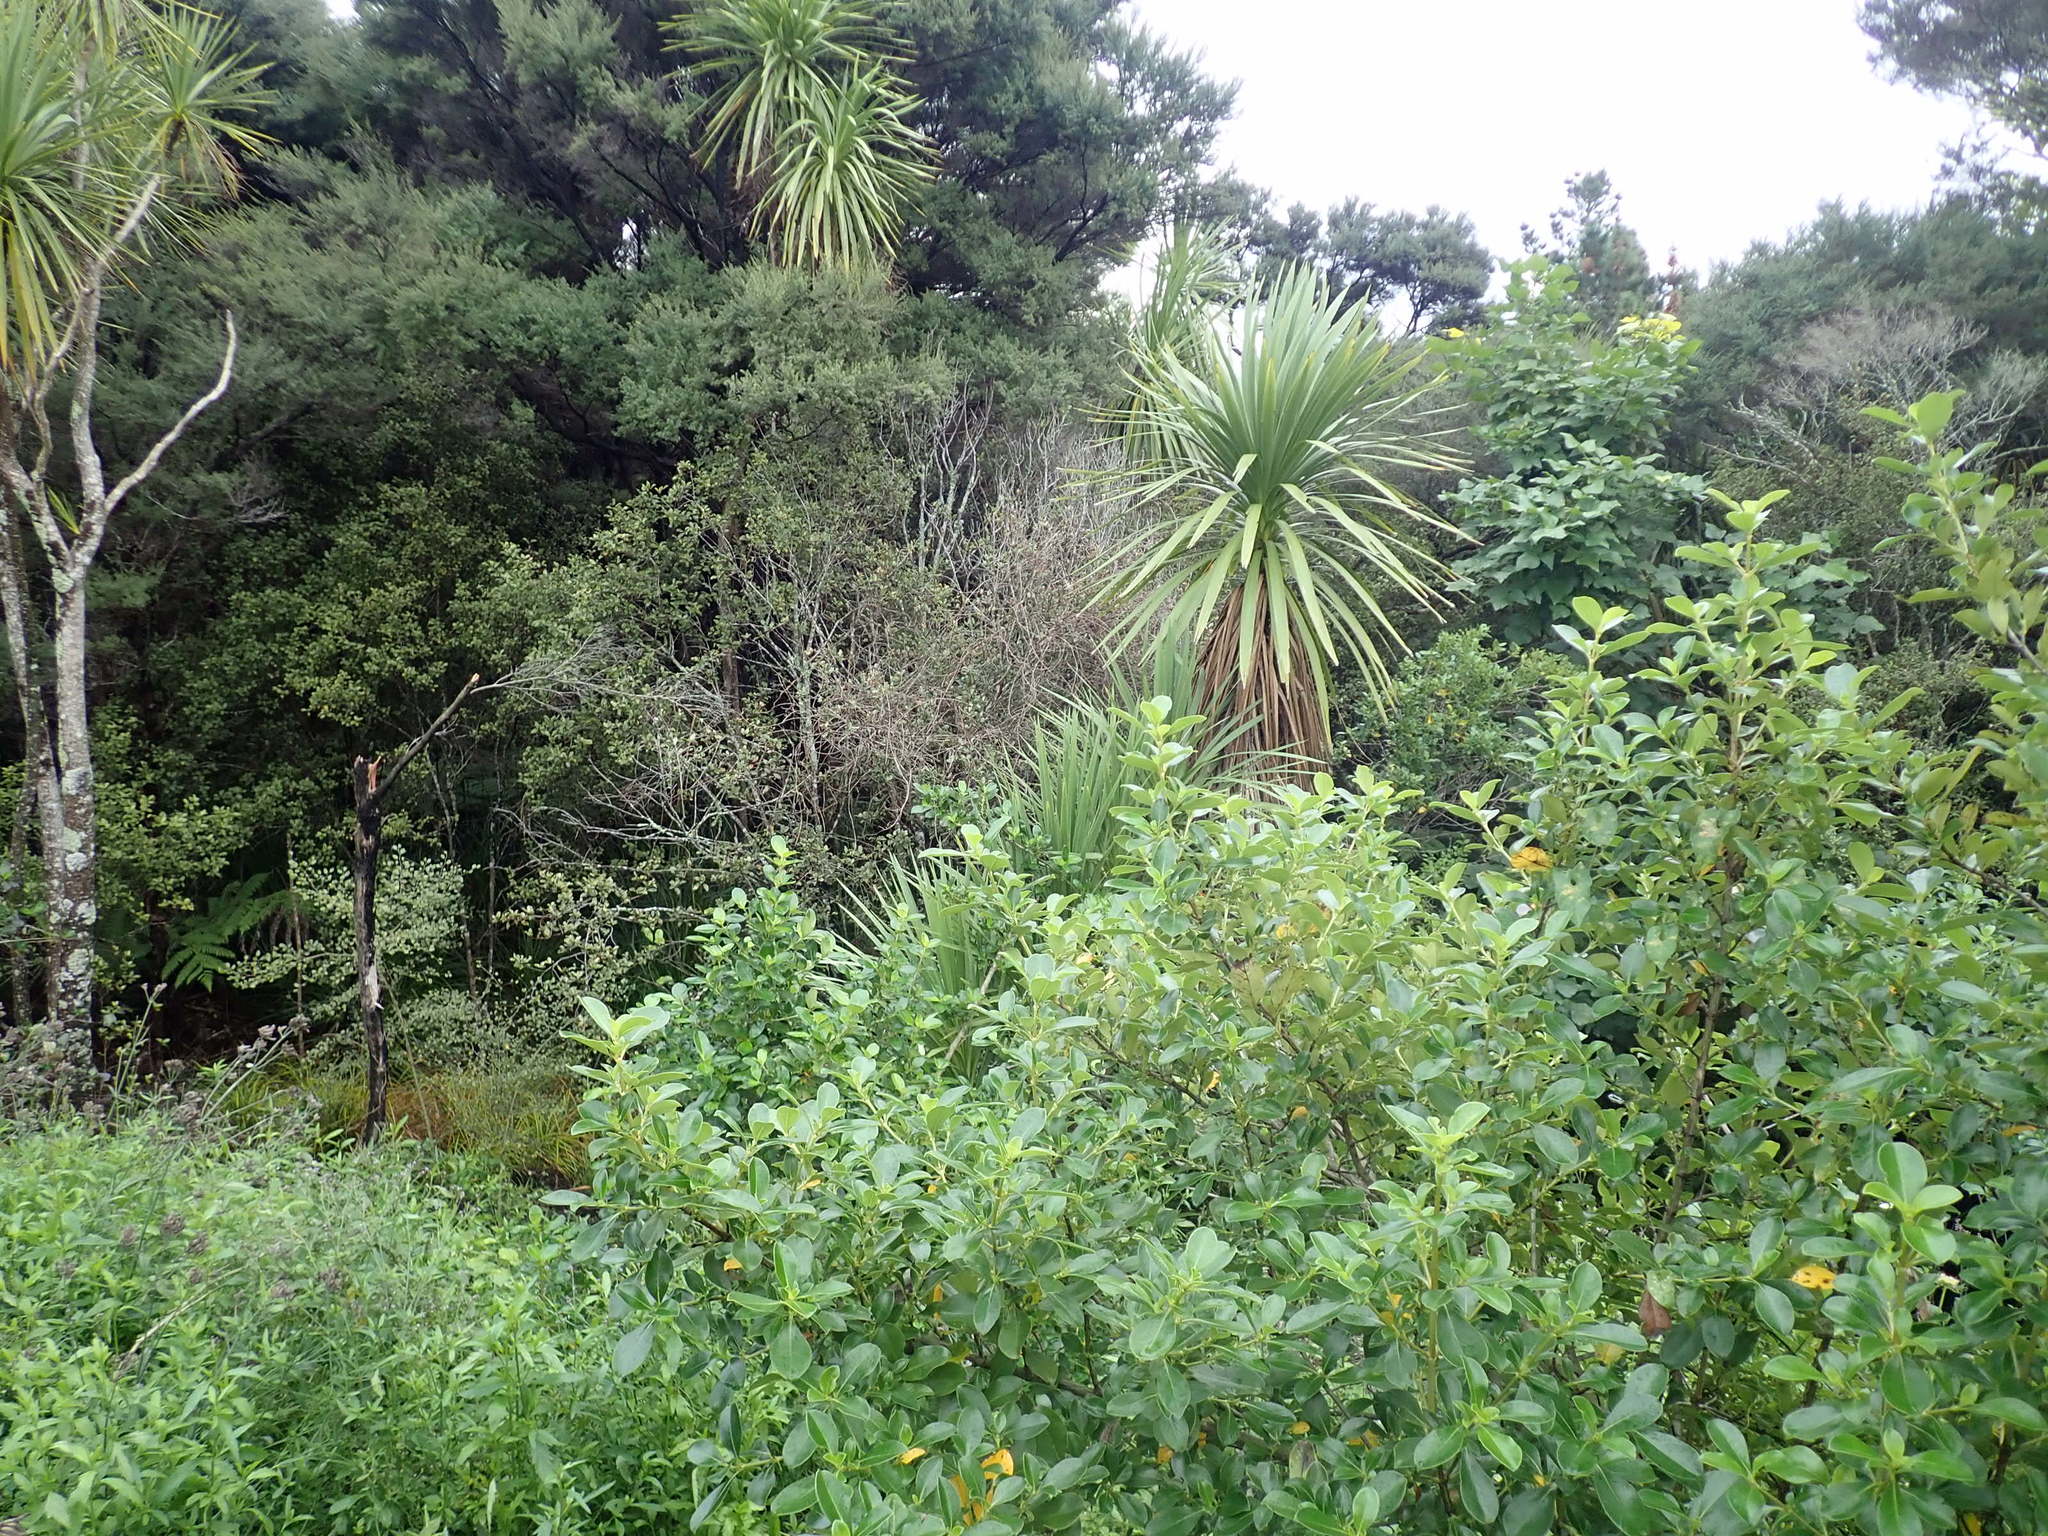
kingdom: Plantae
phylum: Tracheophyta
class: Magnoliopsida
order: Gentianales
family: Rubiaceae
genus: Coprosma
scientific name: Coprosma robusta
